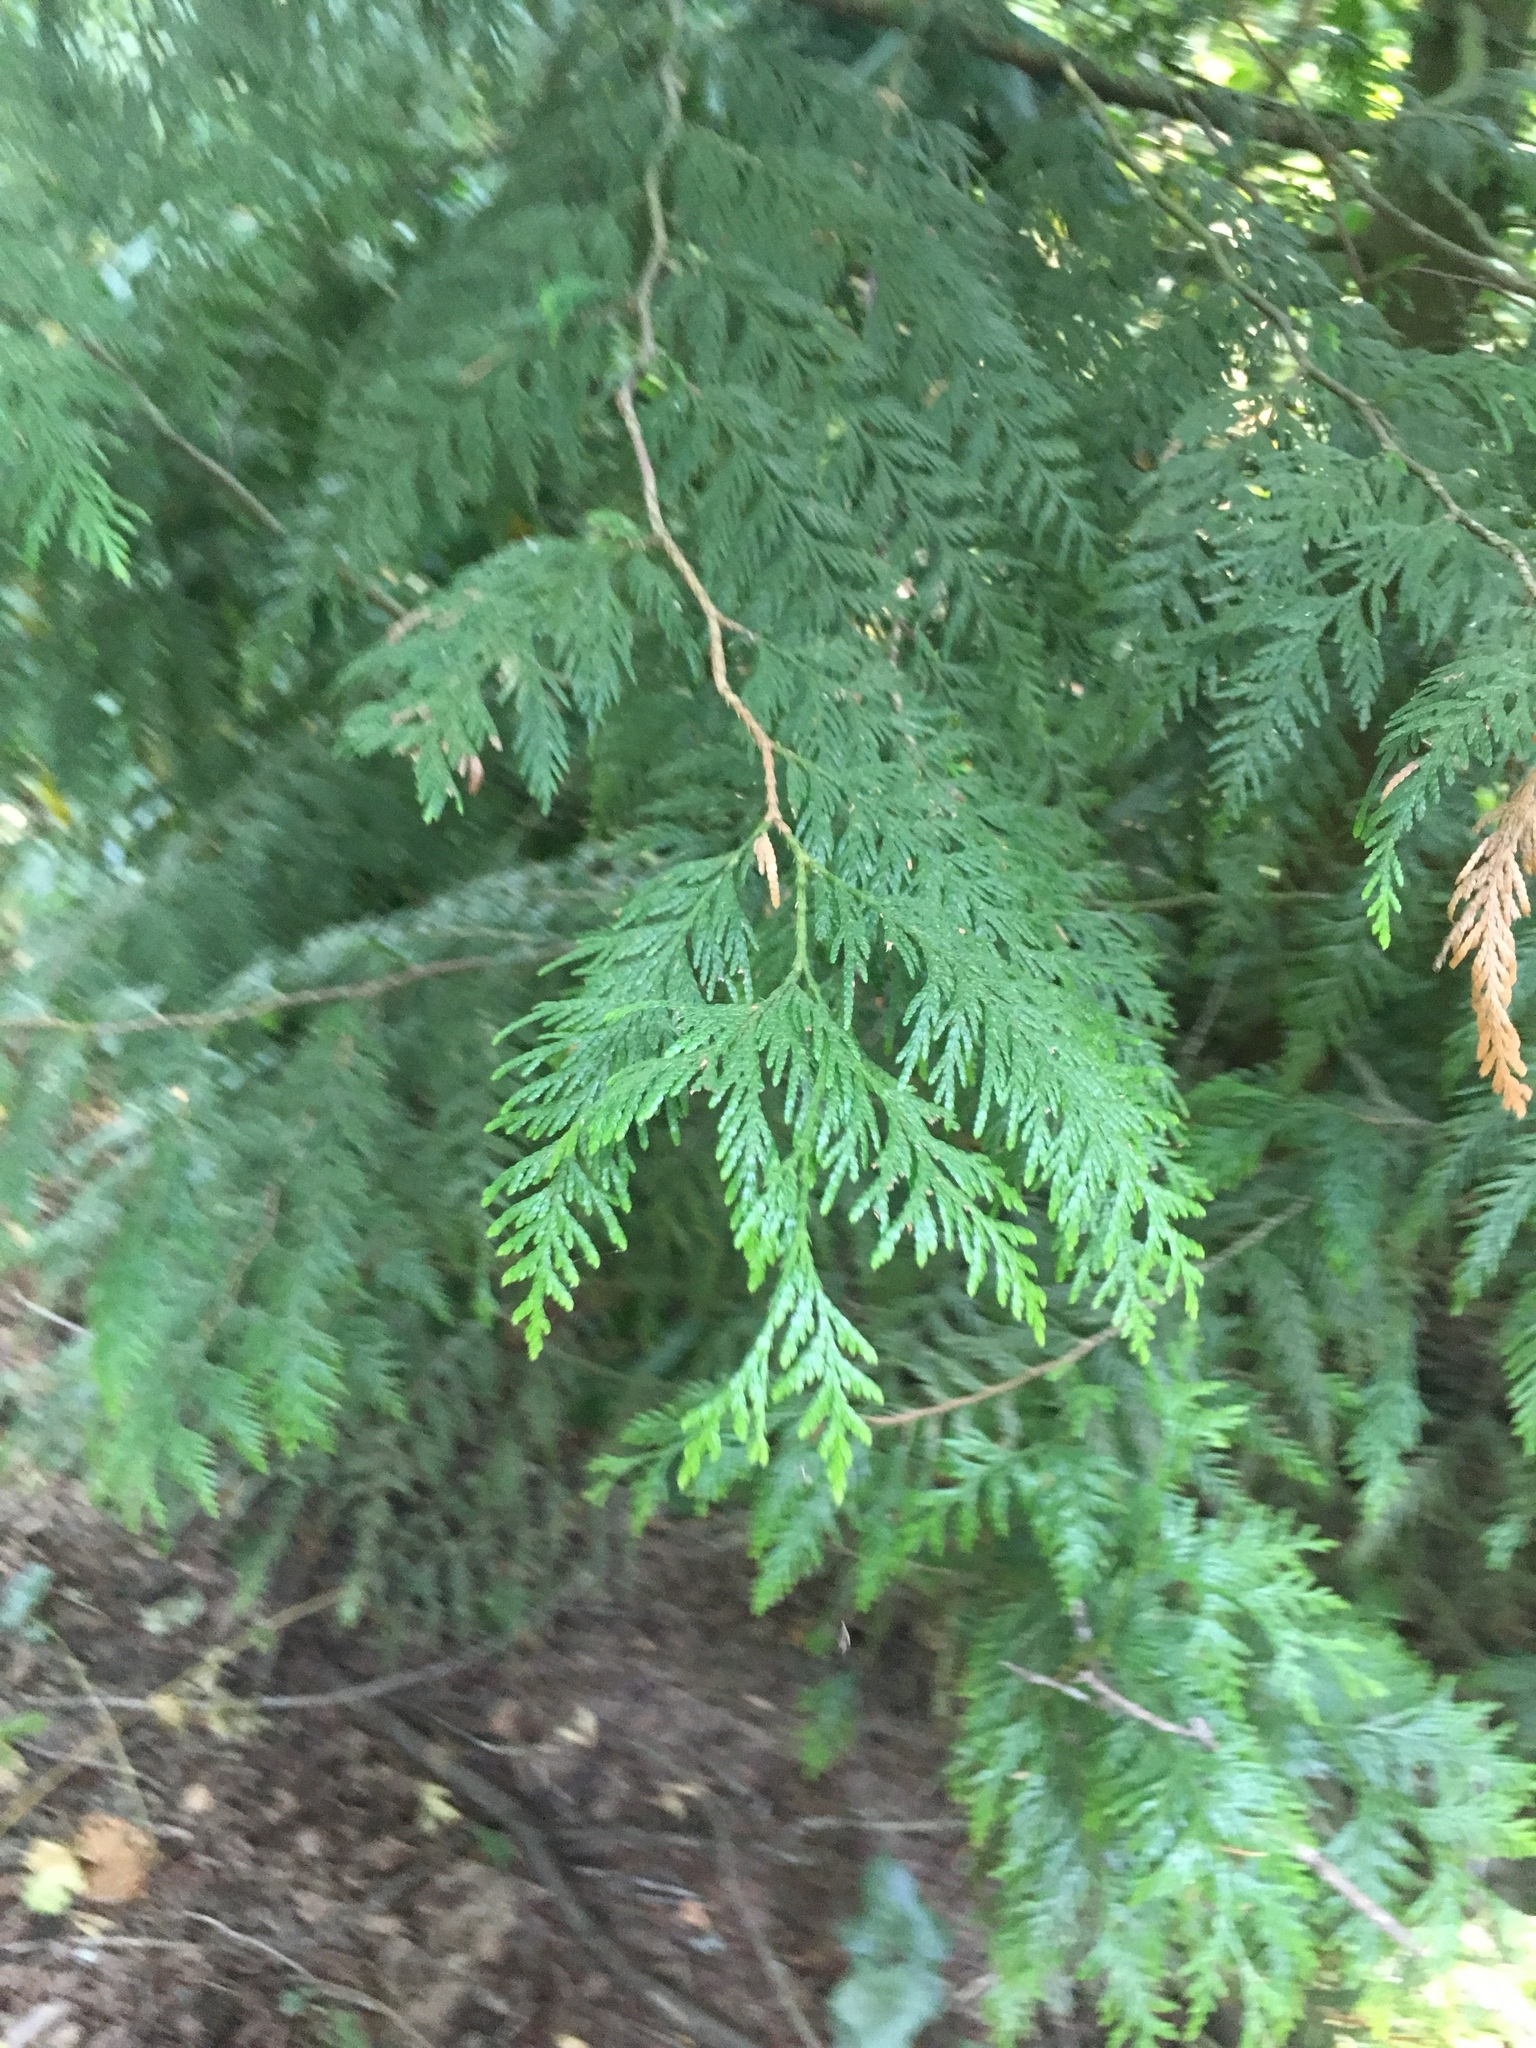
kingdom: Plantae
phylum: Tracheophyta
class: Pinopsida
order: Pinales
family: Cupressaceae
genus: Thuja
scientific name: Thuja plicata
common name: Western red-cedar
